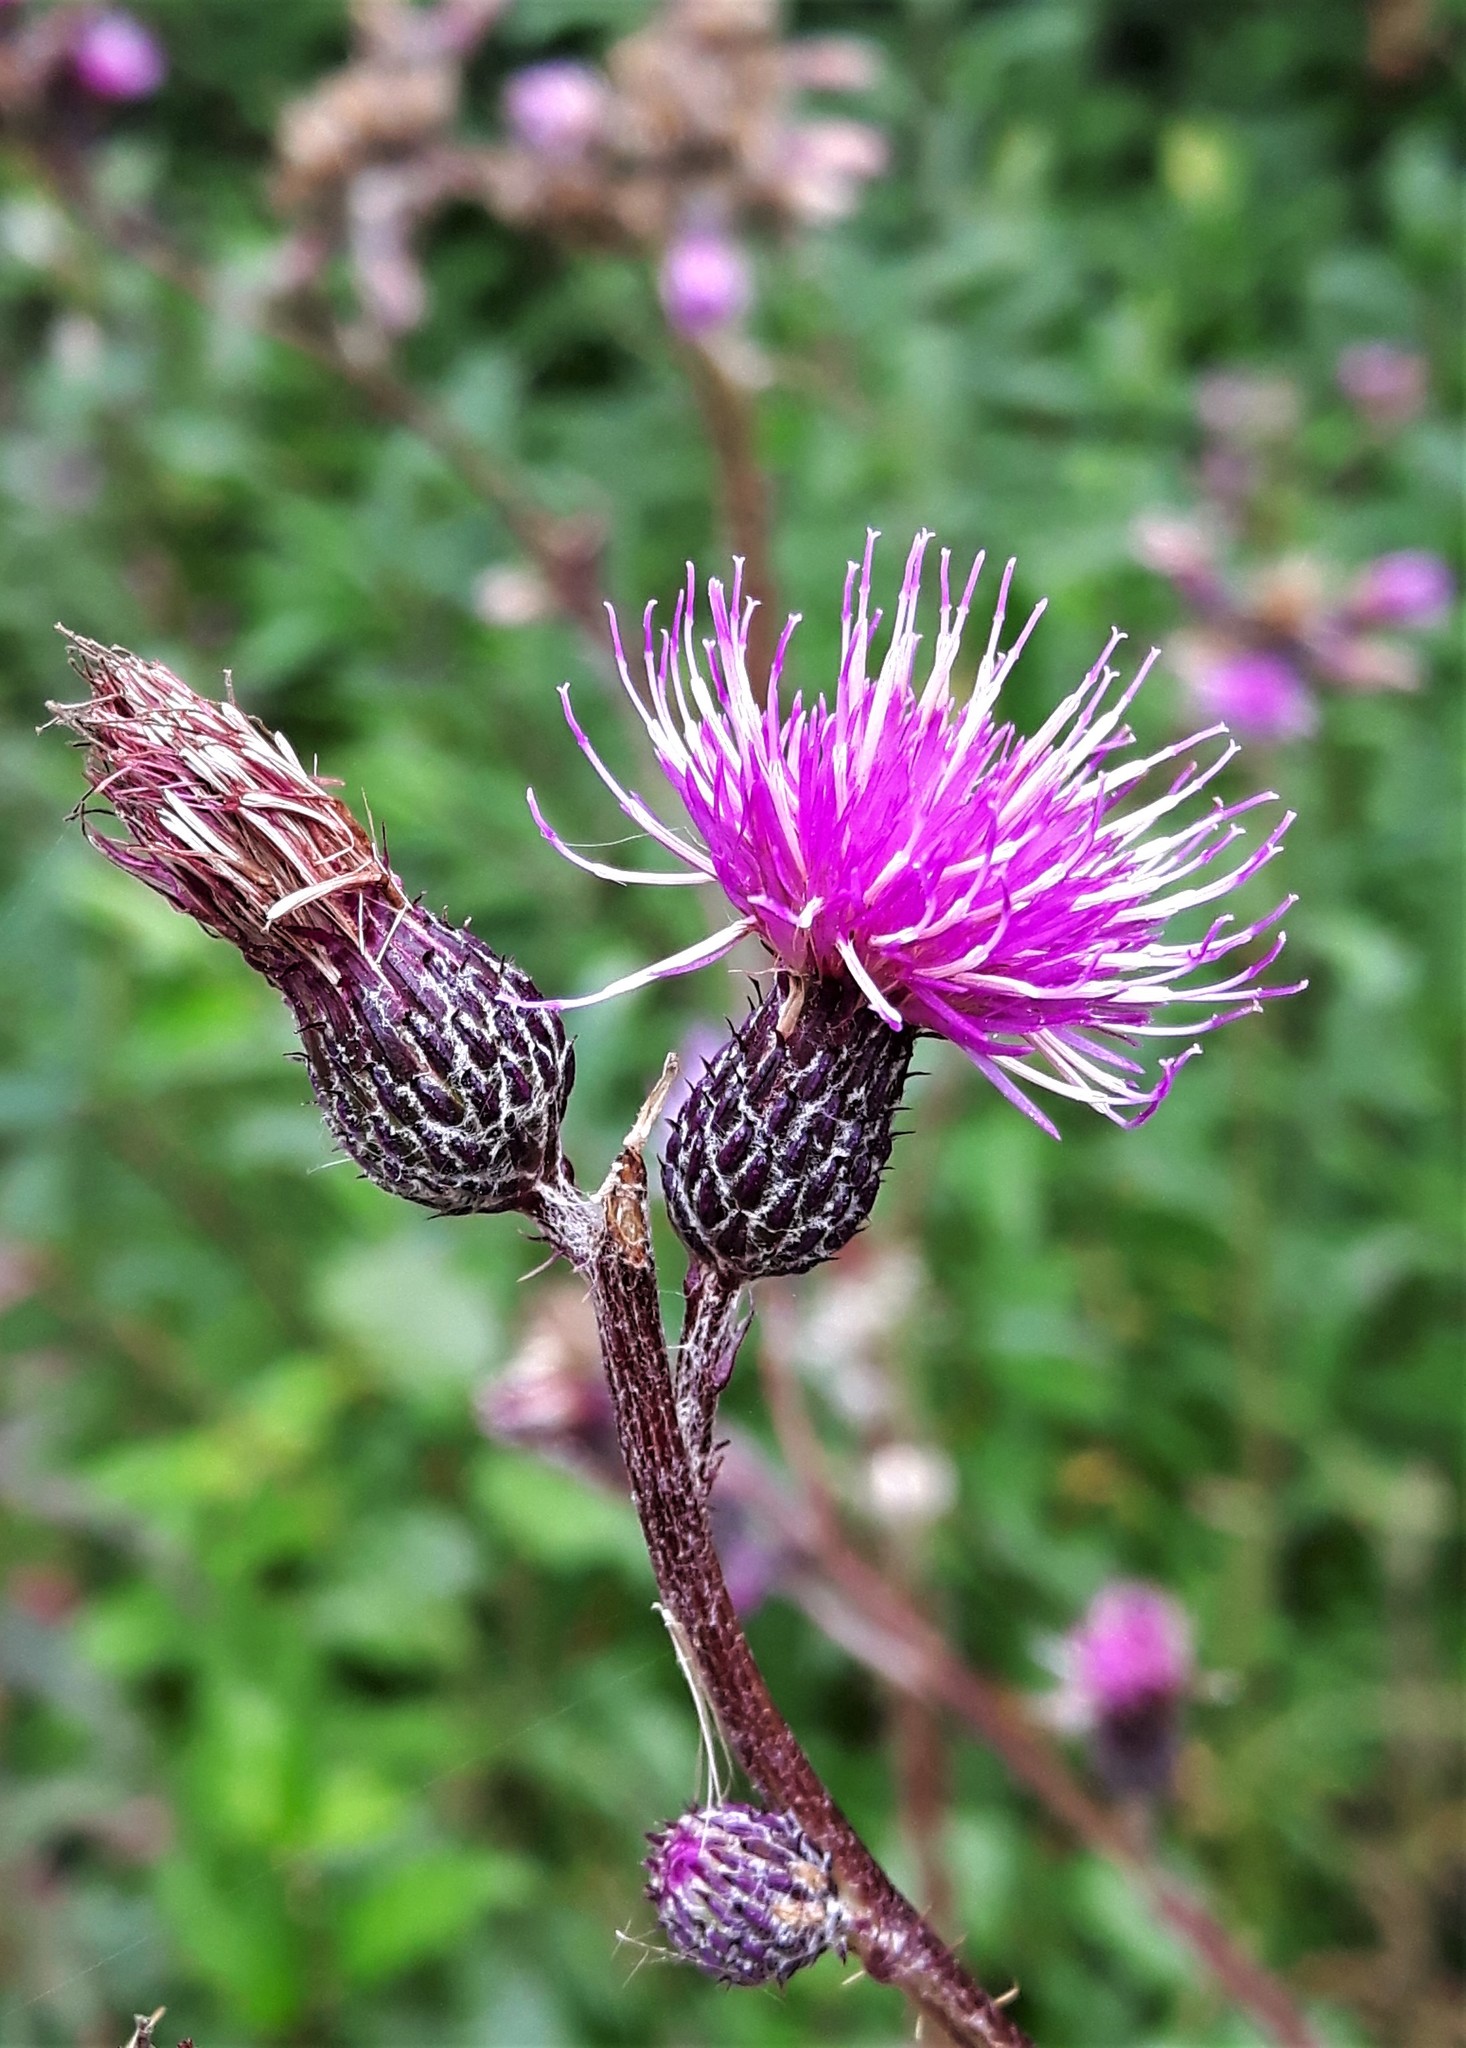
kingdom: Plantae
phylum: Tracheophyta
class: Magnoliopsida
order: Asterales
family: Asteraceae
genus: Cirsium
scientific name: Cirsium palustre
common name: Marsh thistle
